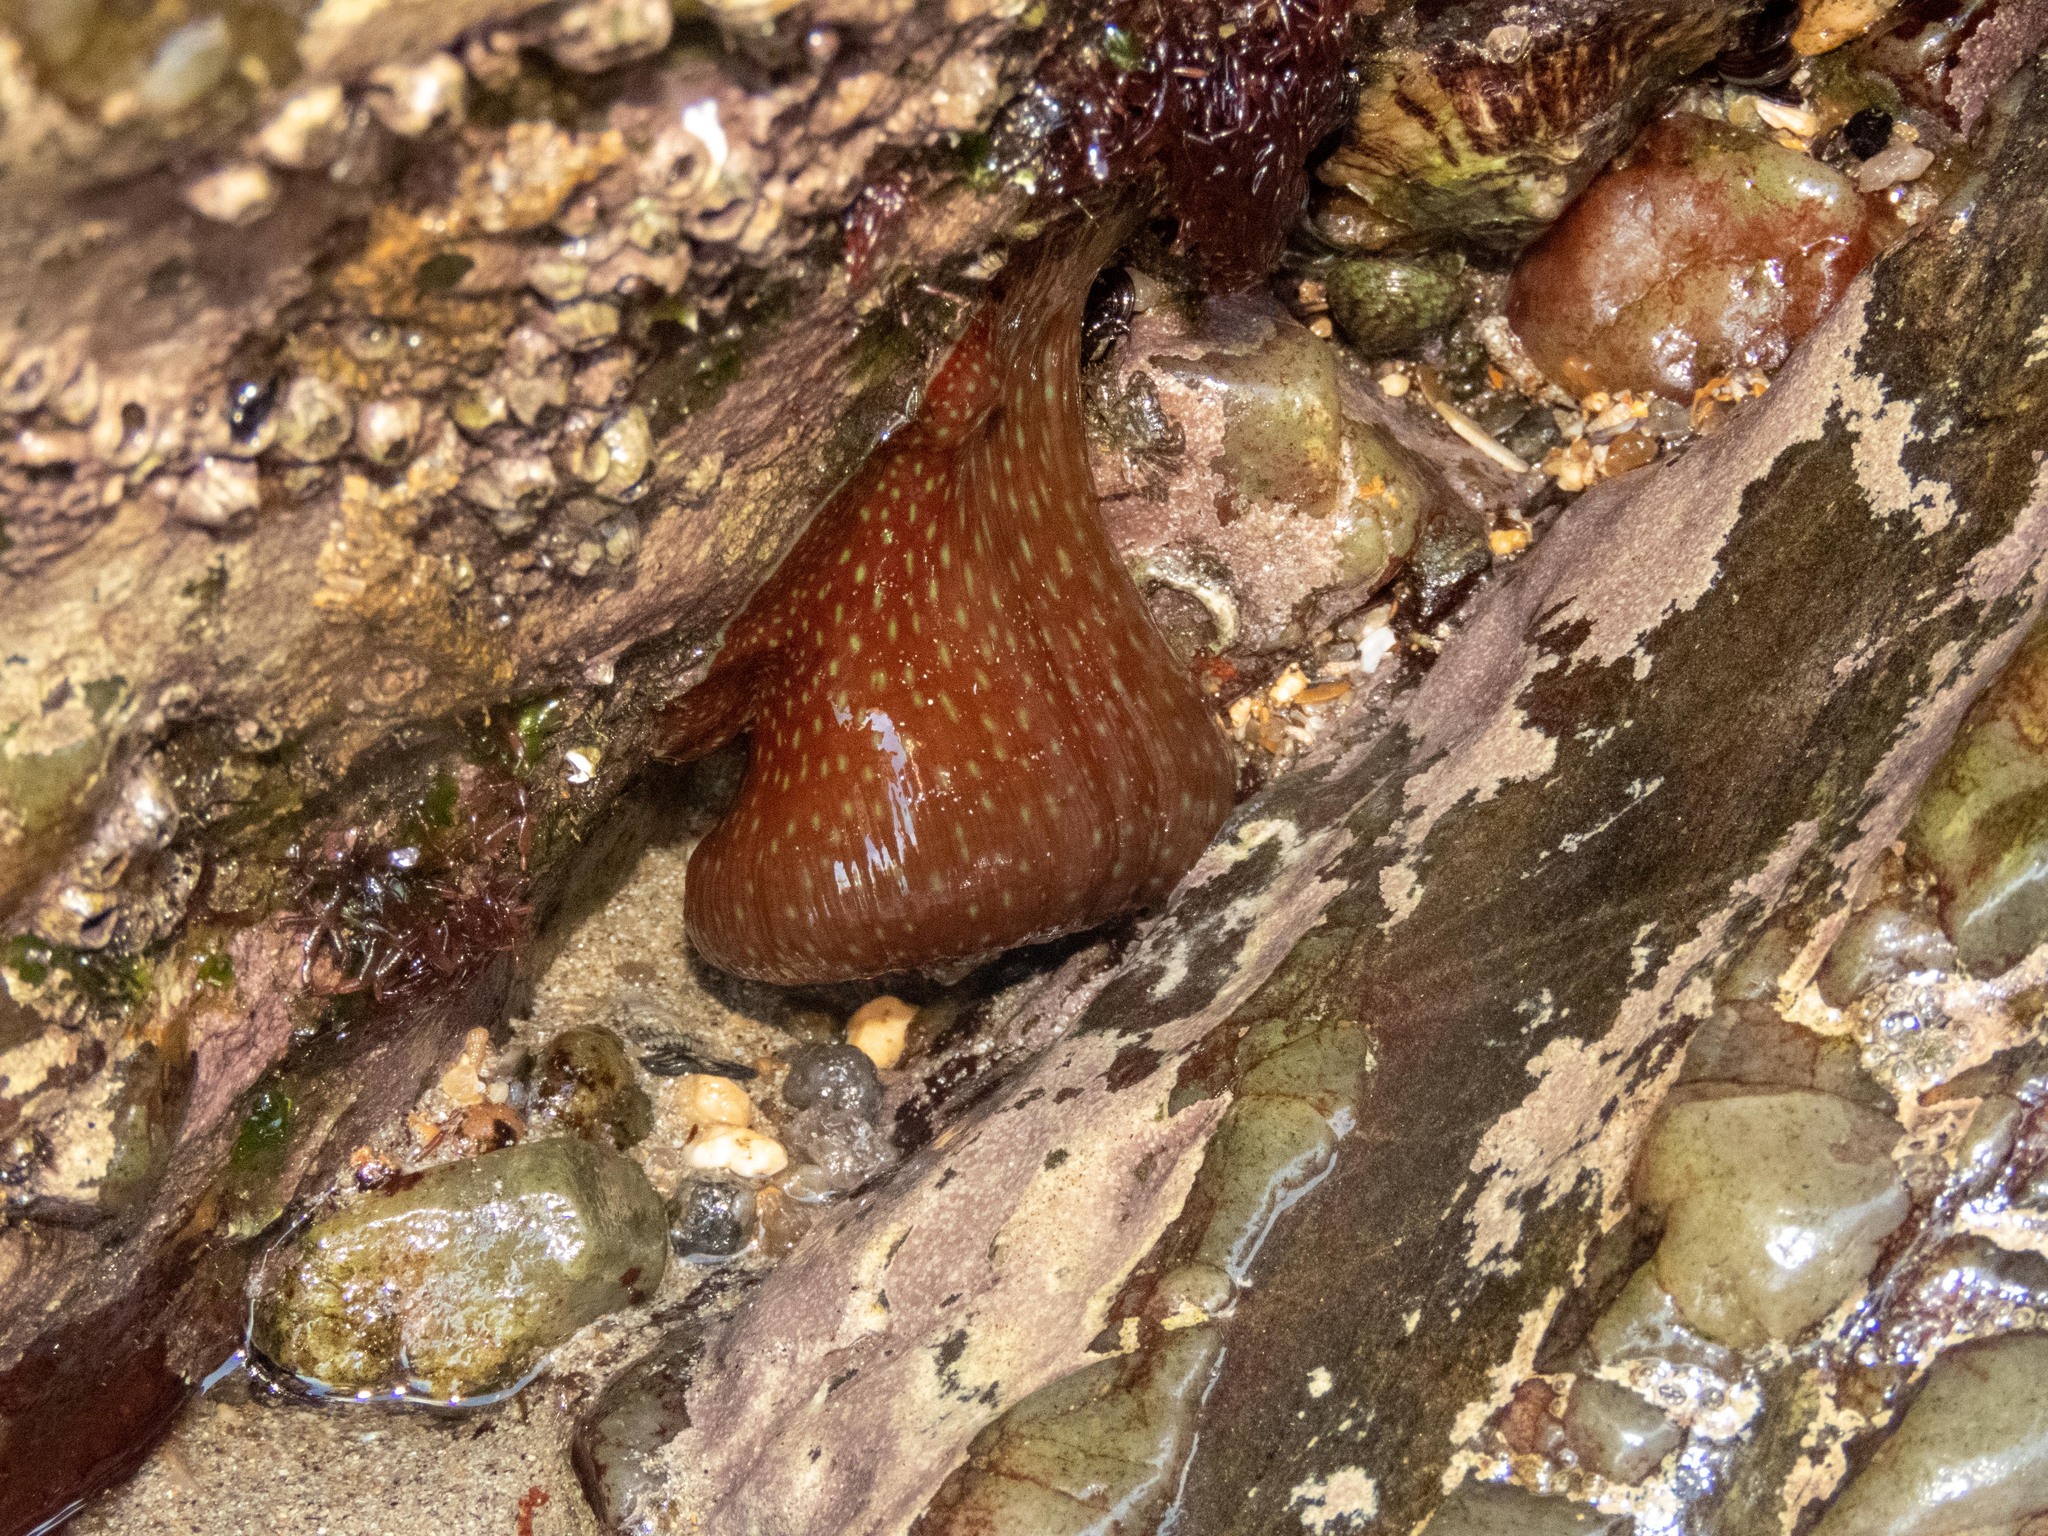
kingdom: Animalia
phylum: Cnidaria
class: Anthozoa
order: Actiniaria
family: Actiniidae
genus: Actinia
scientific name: Actinia fragacea
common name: Strawberry anemone
